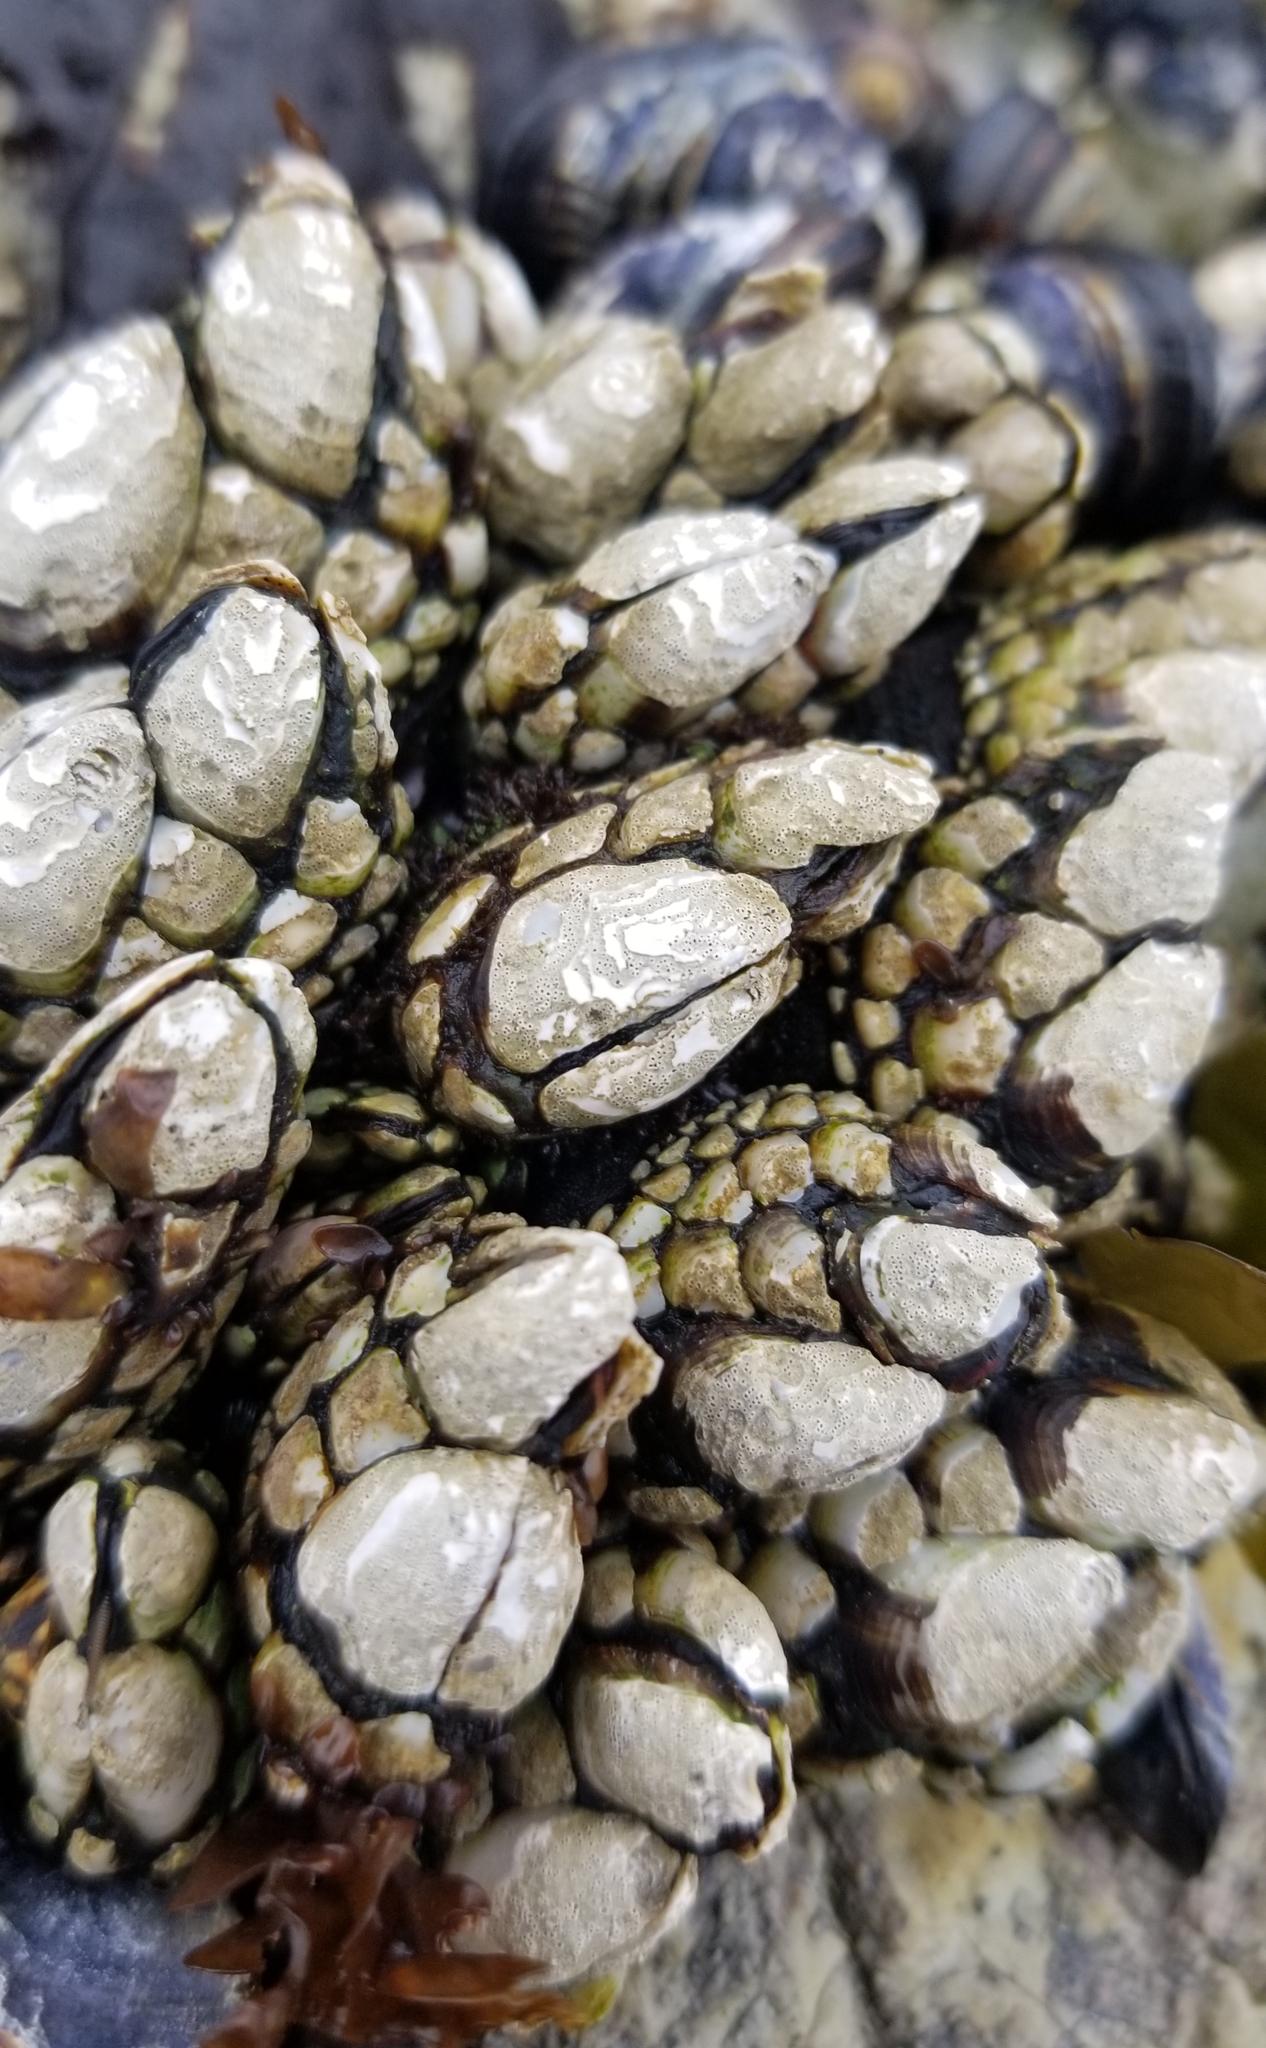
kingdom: Animalia
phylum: Arthropoda
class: Maxillopoda
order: Pedunculata
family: Pollicipedidae
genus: Pollicipes
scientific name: Pollicipes polymerus
